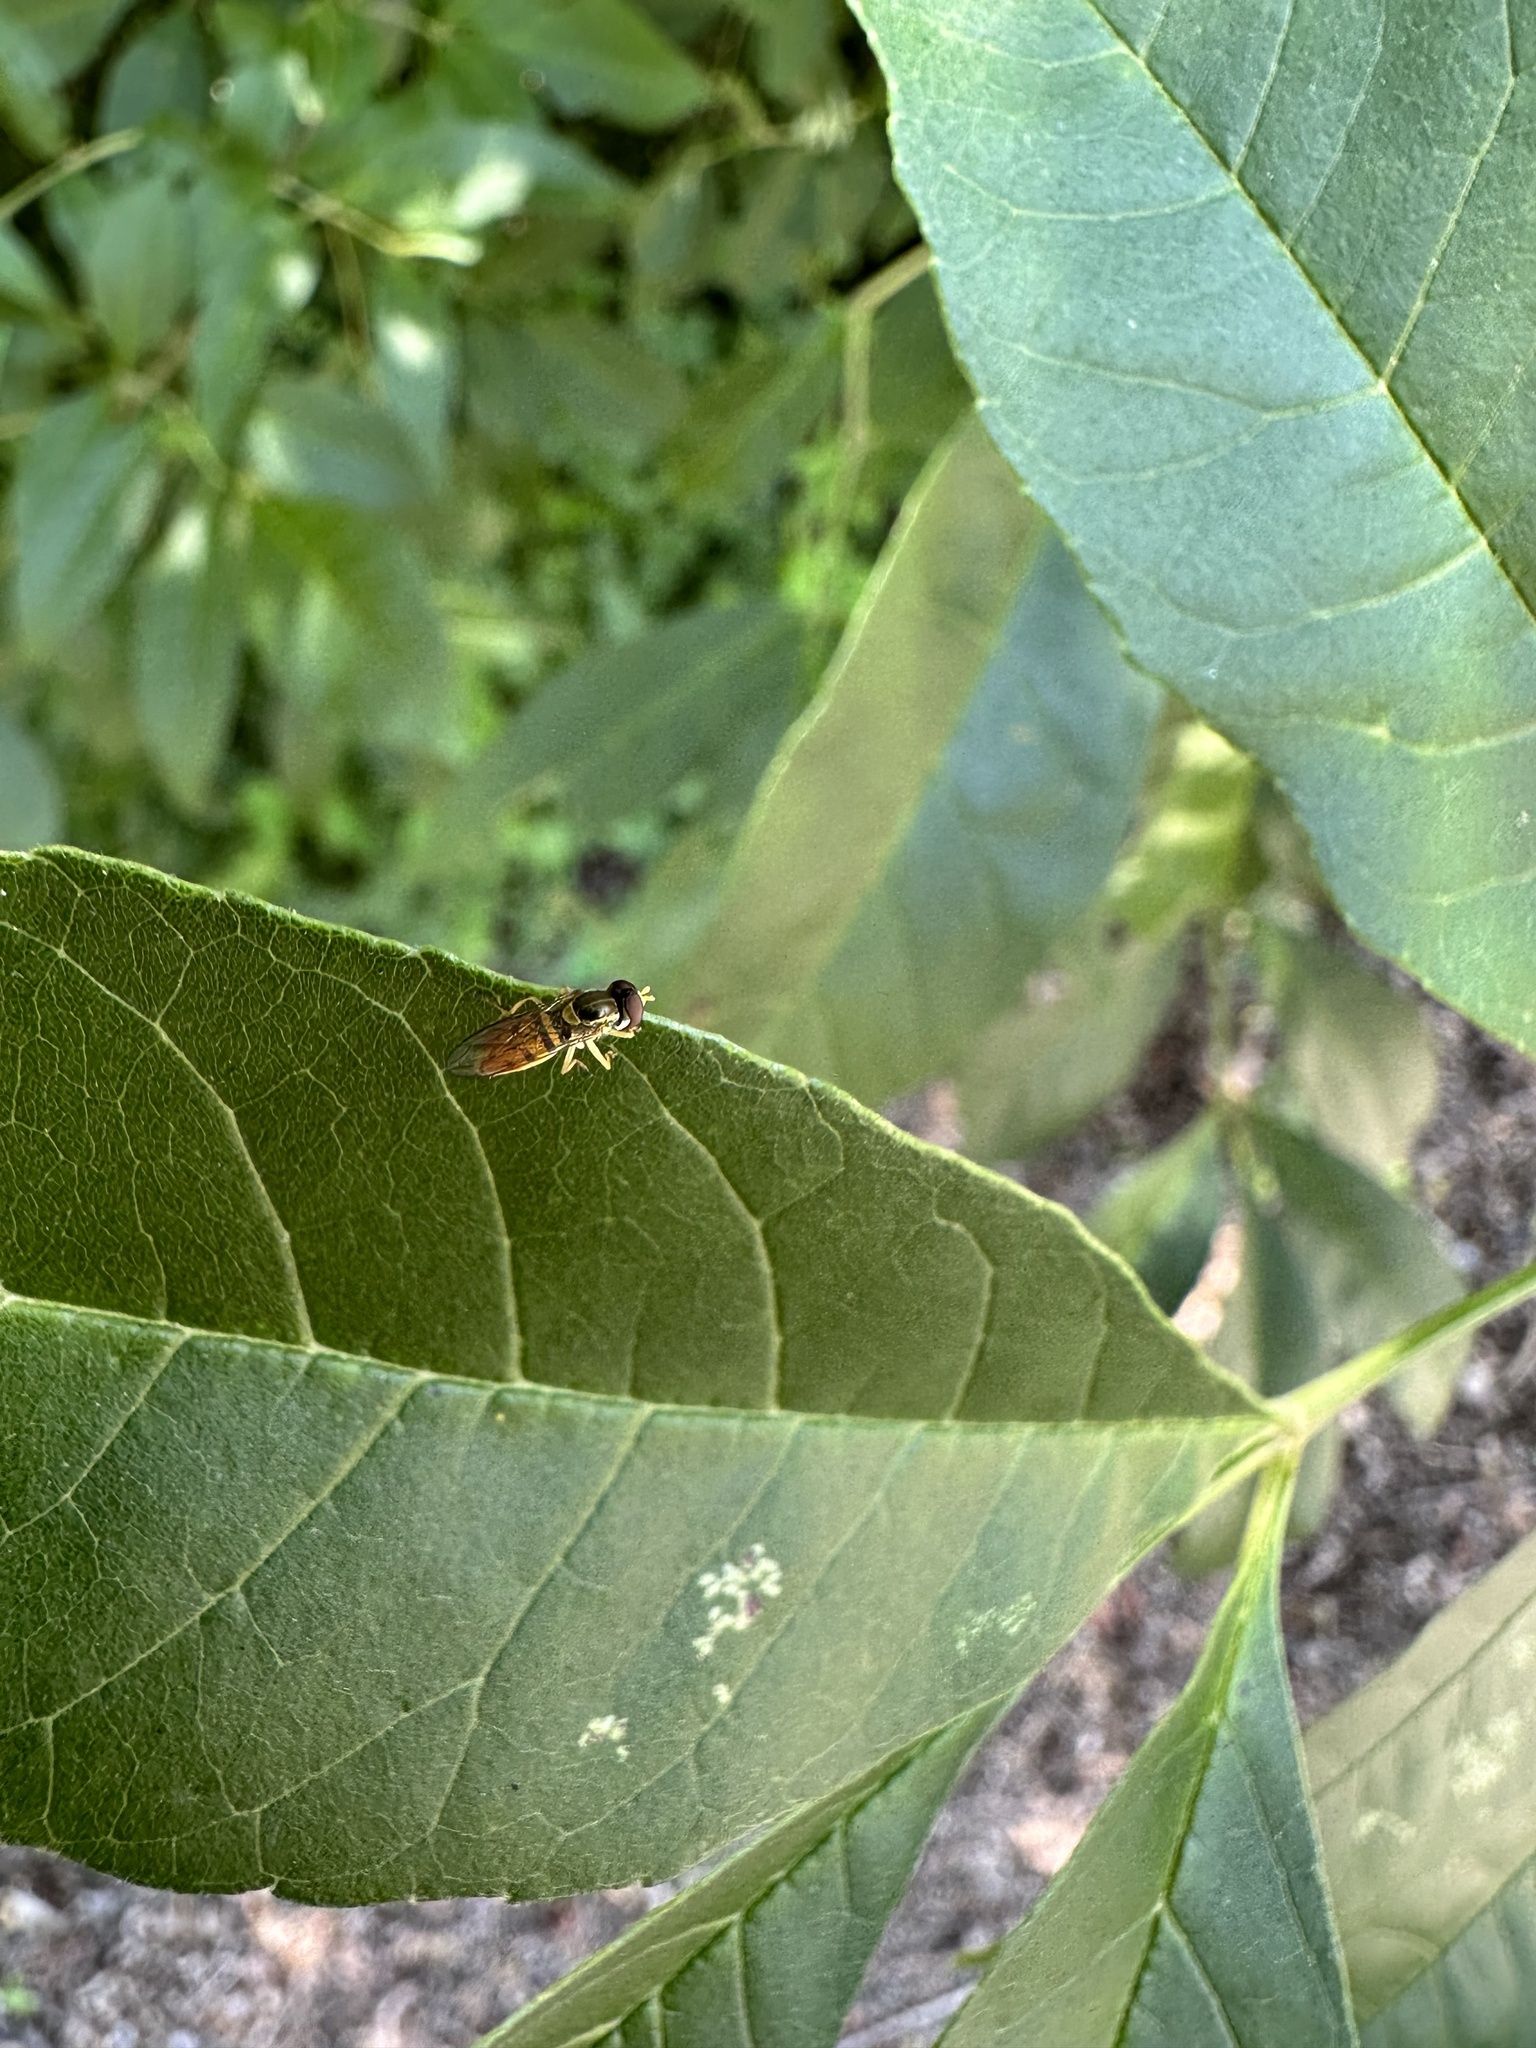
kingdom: Animalia
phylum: Arthropoda
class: Insecta
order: Diptera
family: Syrphidae
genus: Toxomerus
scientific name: Toxomerus marginatus
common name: Syrphid fly
